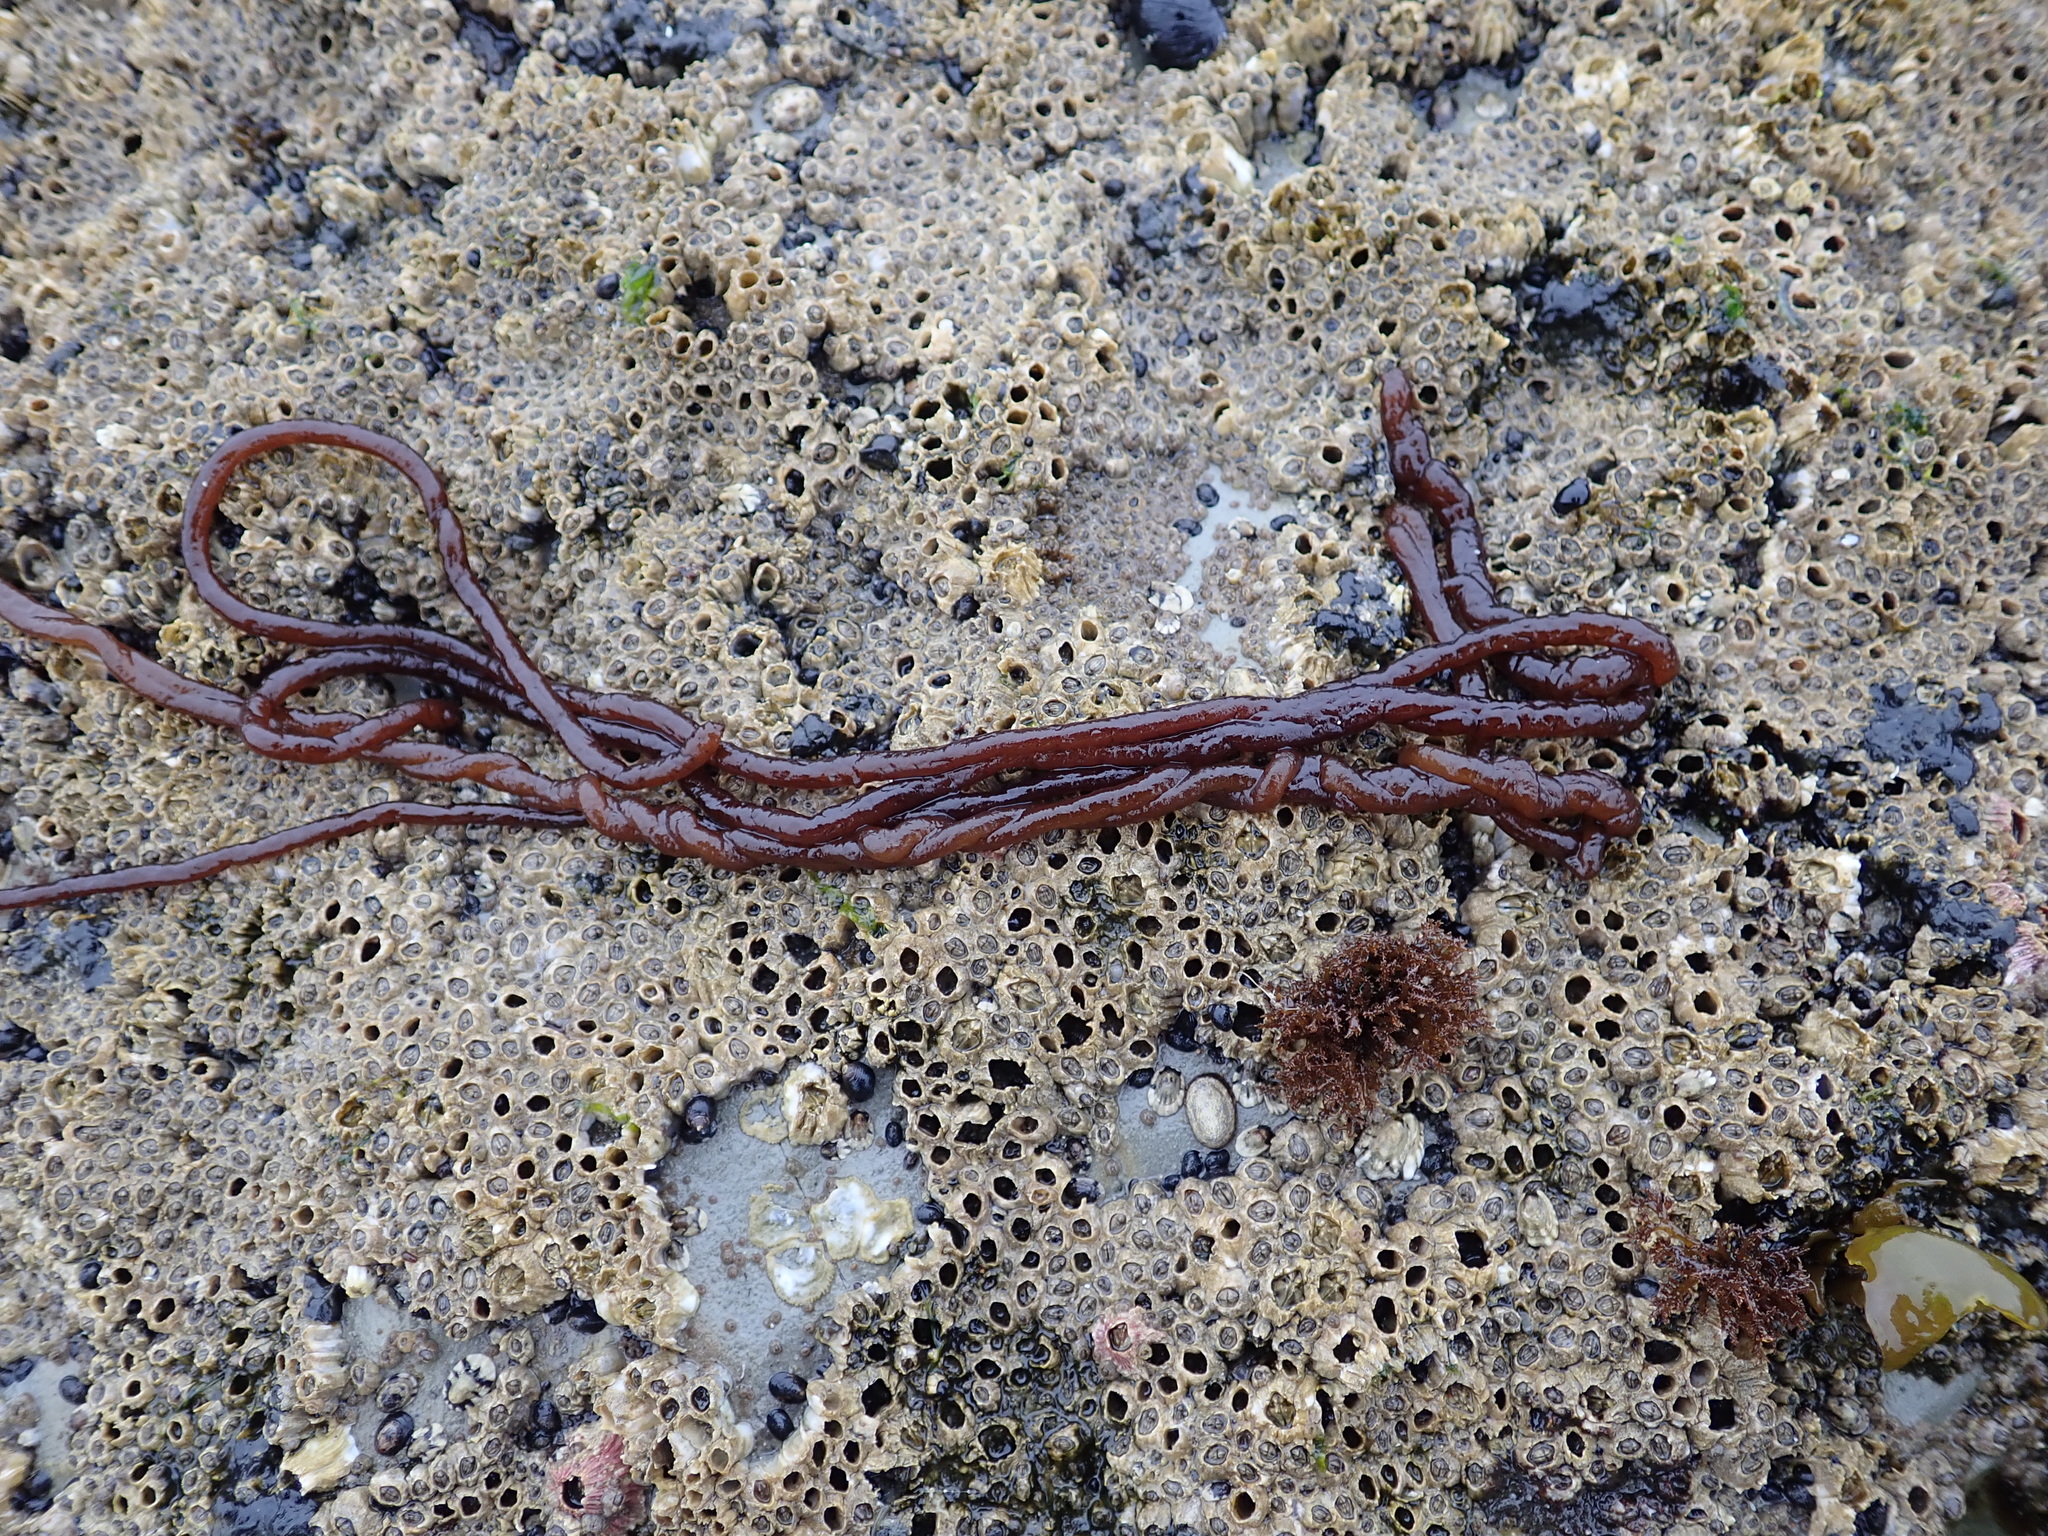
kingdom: Plantae
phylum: Rhodophyta
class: Florideophyceae
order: Nemaliales
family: Nemaliaceae
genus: Nemalion
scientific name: Nemalion elminthoides
